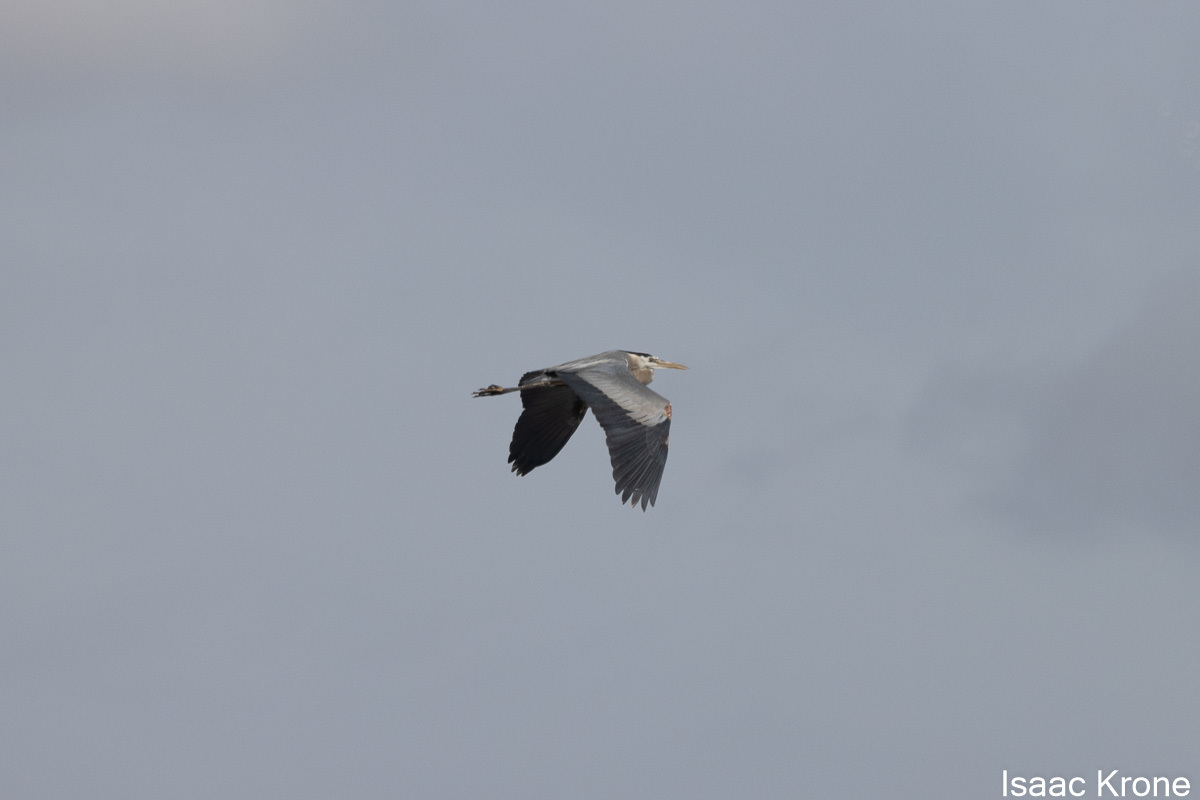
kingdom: Animalia
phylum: Chordata
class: Aves
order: Pelecaniformes
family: Ardeidae
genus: Ardea
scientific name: Ardea herodias
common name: Great blue heron
